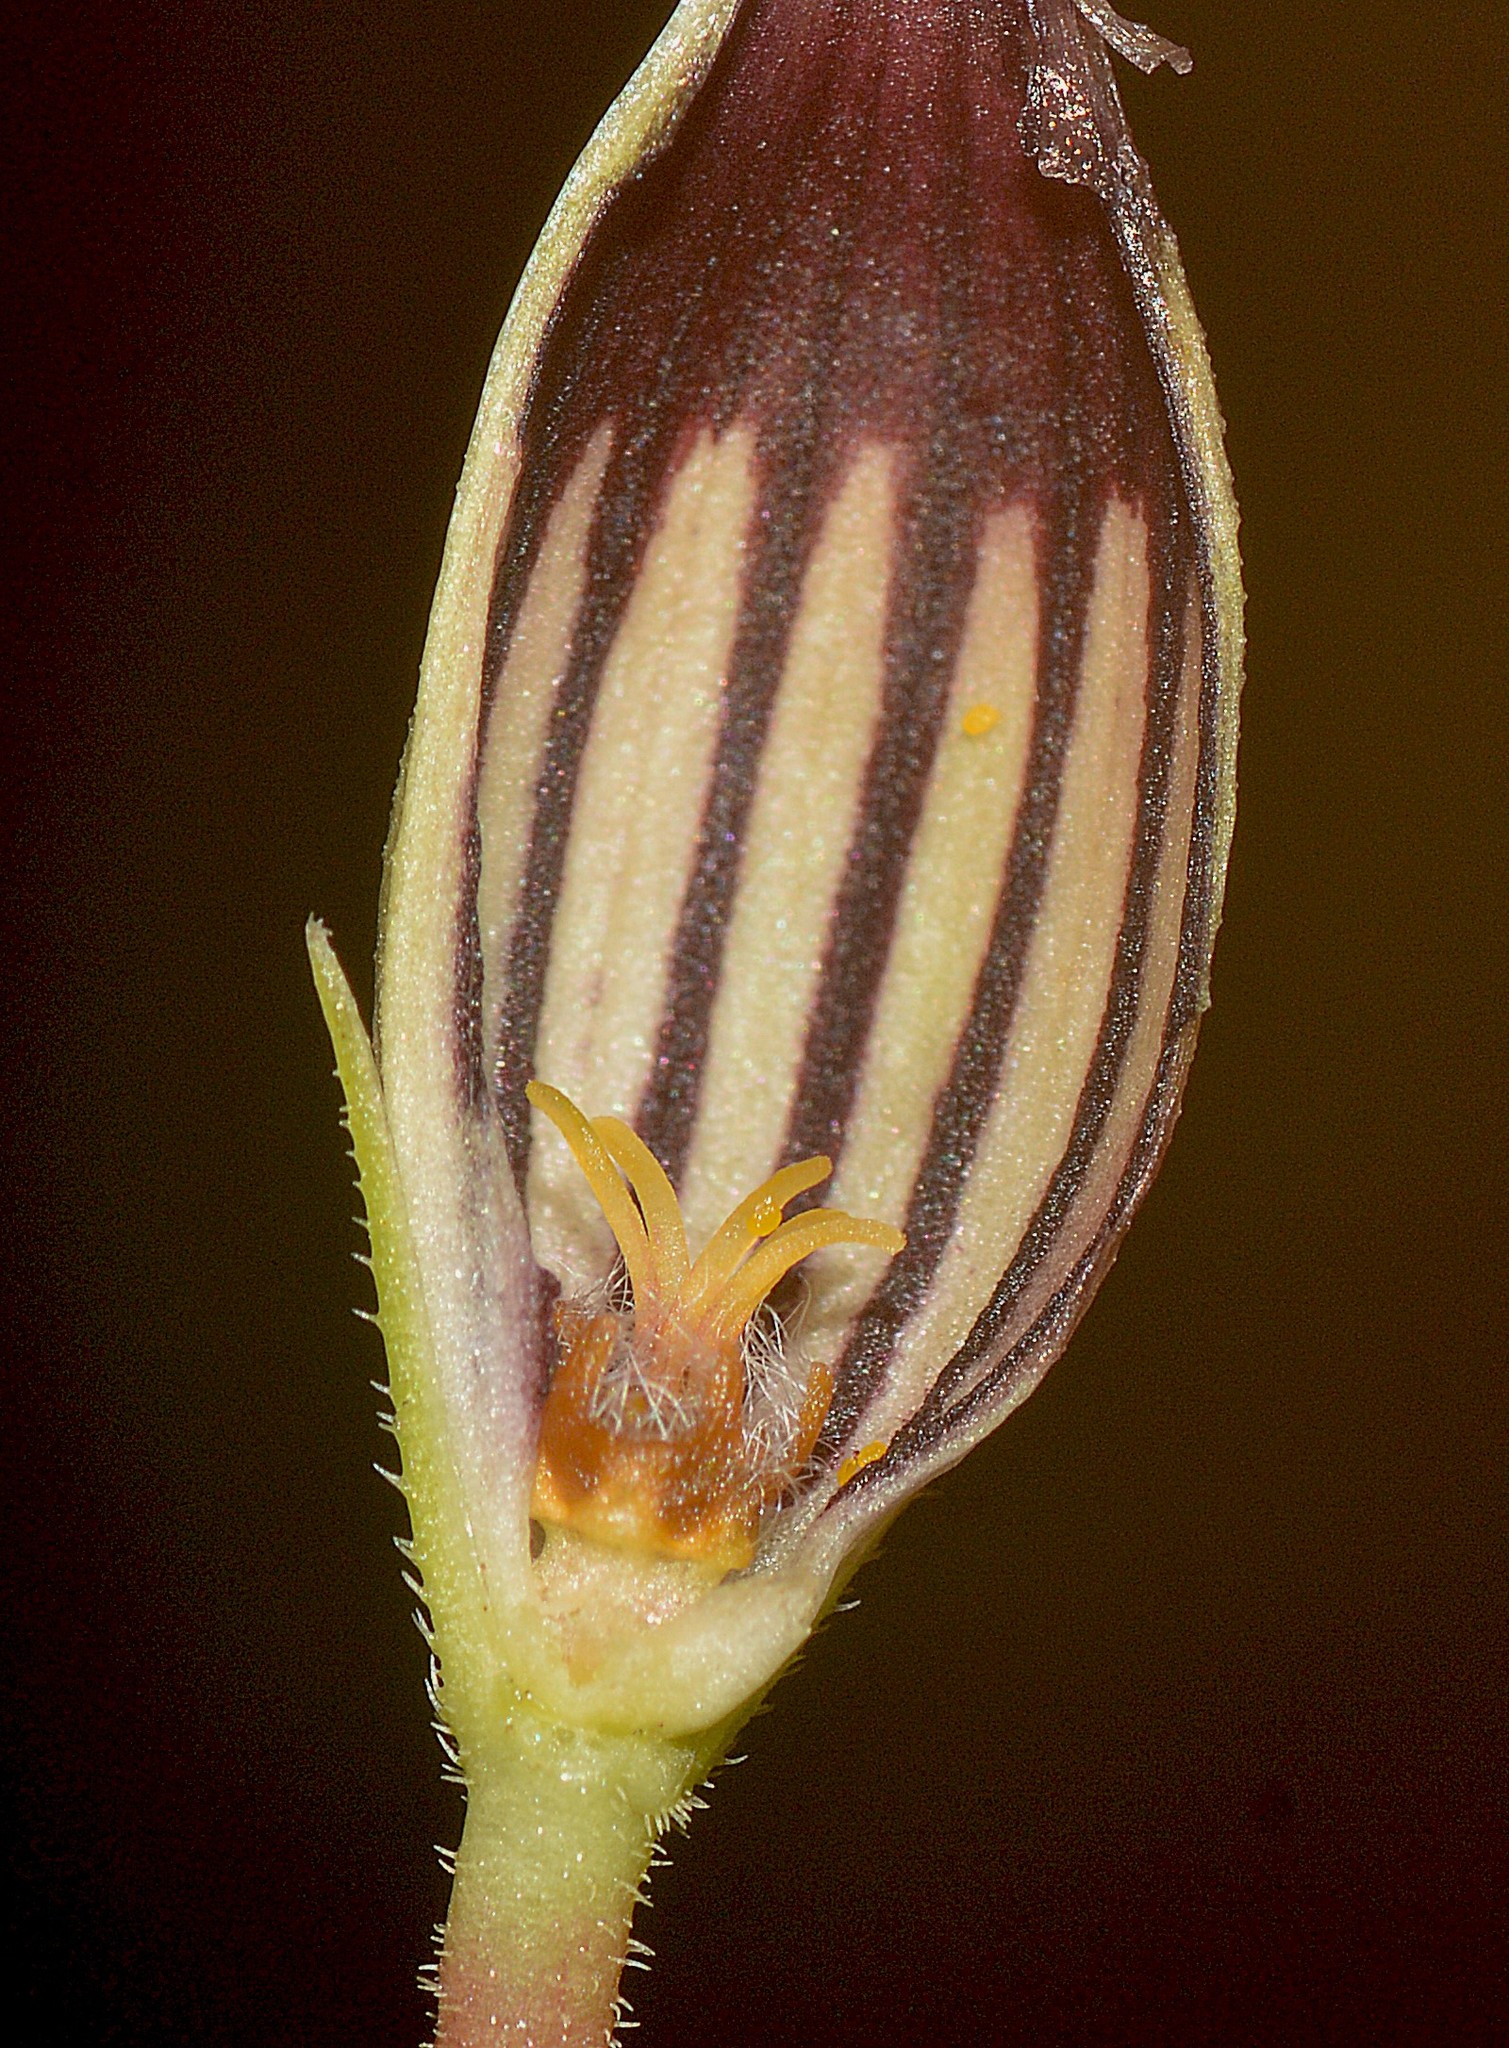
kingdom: Plantae
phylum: Tracheophyta
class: Magnoliopsida
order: Gentianales
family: Apocynaceae
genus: Ceropegia
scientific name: Ceropegia attenuata
